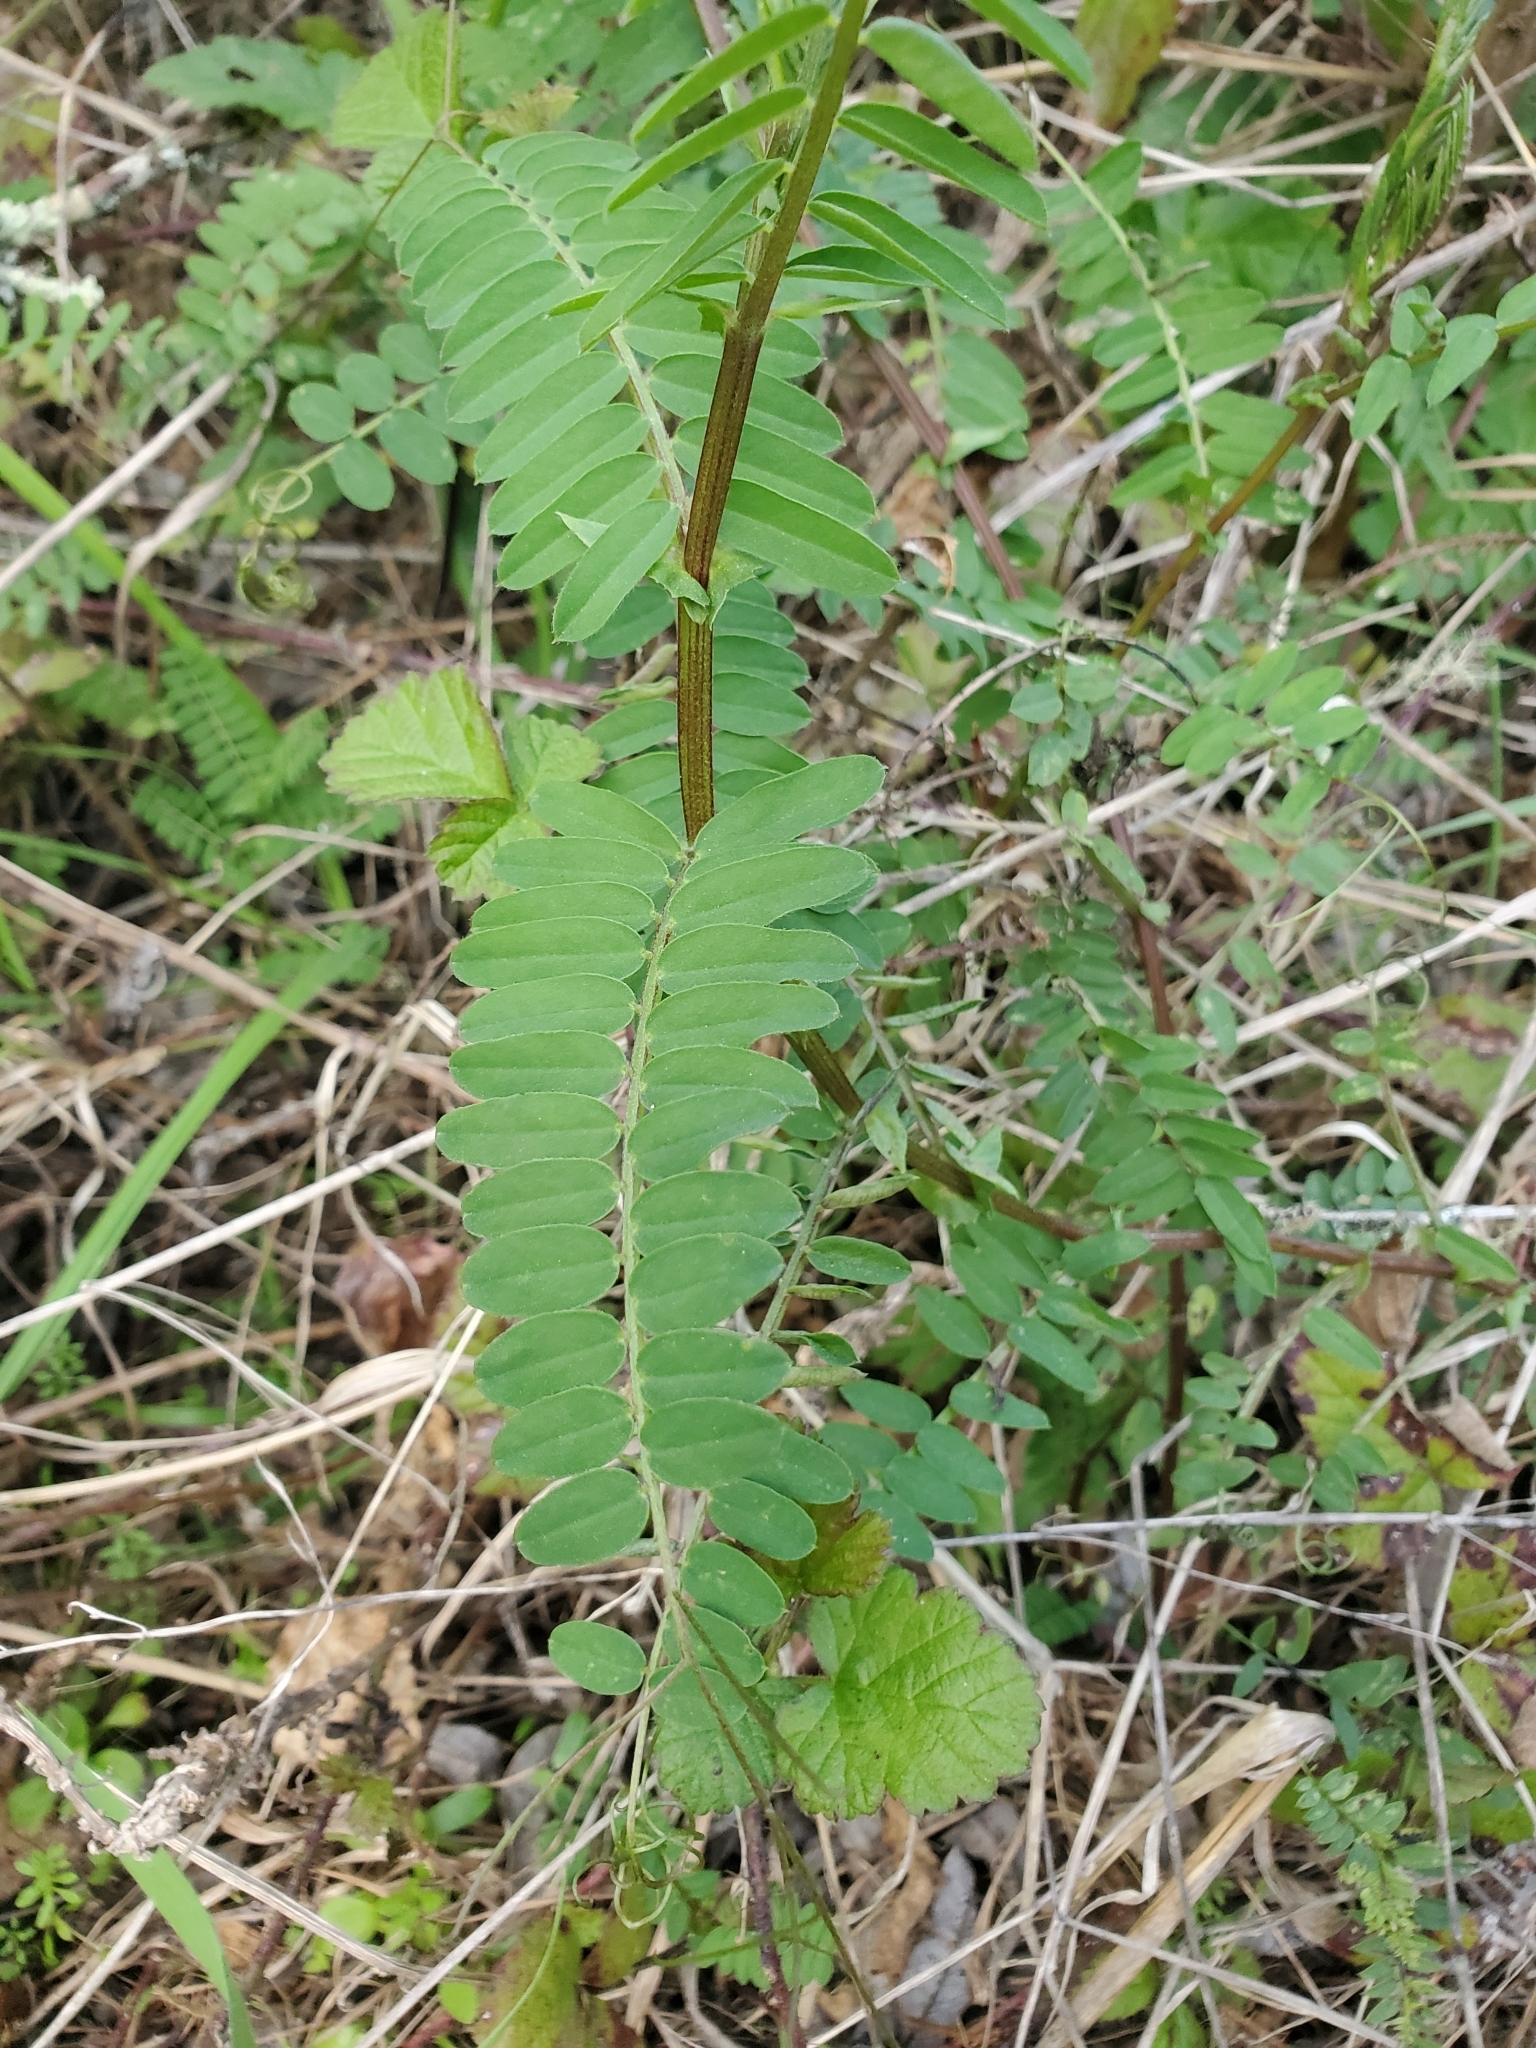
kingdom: Plantae
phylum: Tracheophyta
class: Magnoliopsida
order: Fabales
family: Fabaceae
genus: Vicia
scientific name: Vicia
